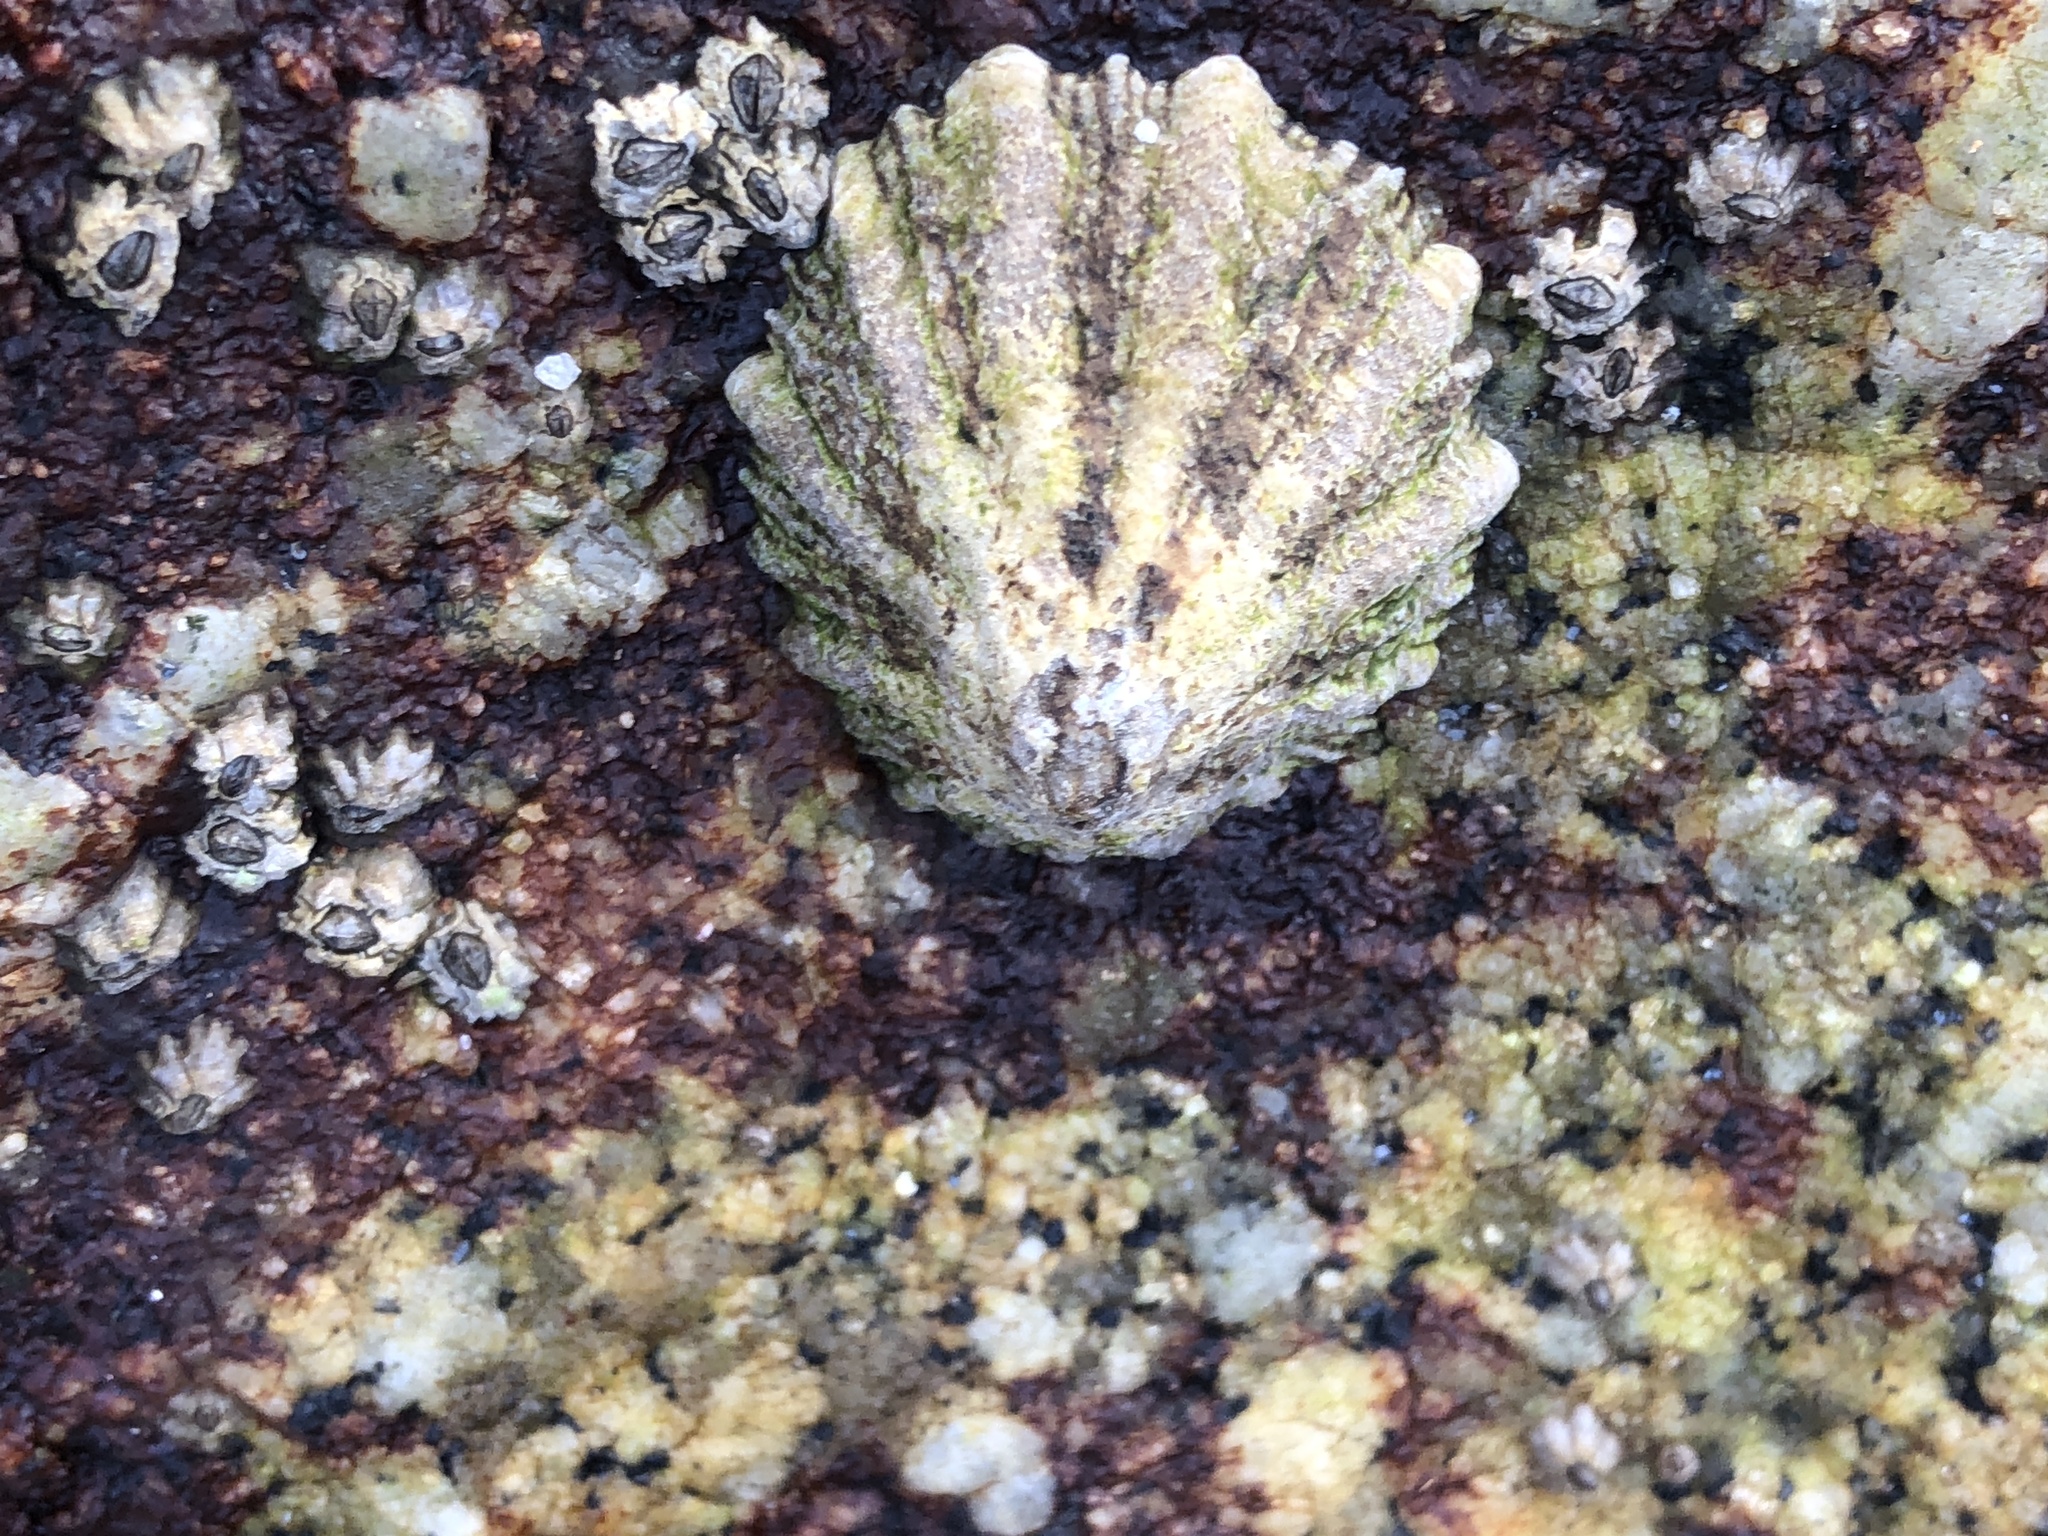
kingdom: Animalia
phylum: Mollusca
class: Gastropoda
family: Lottiidae
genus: Lottia
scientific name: Lottia scabra
